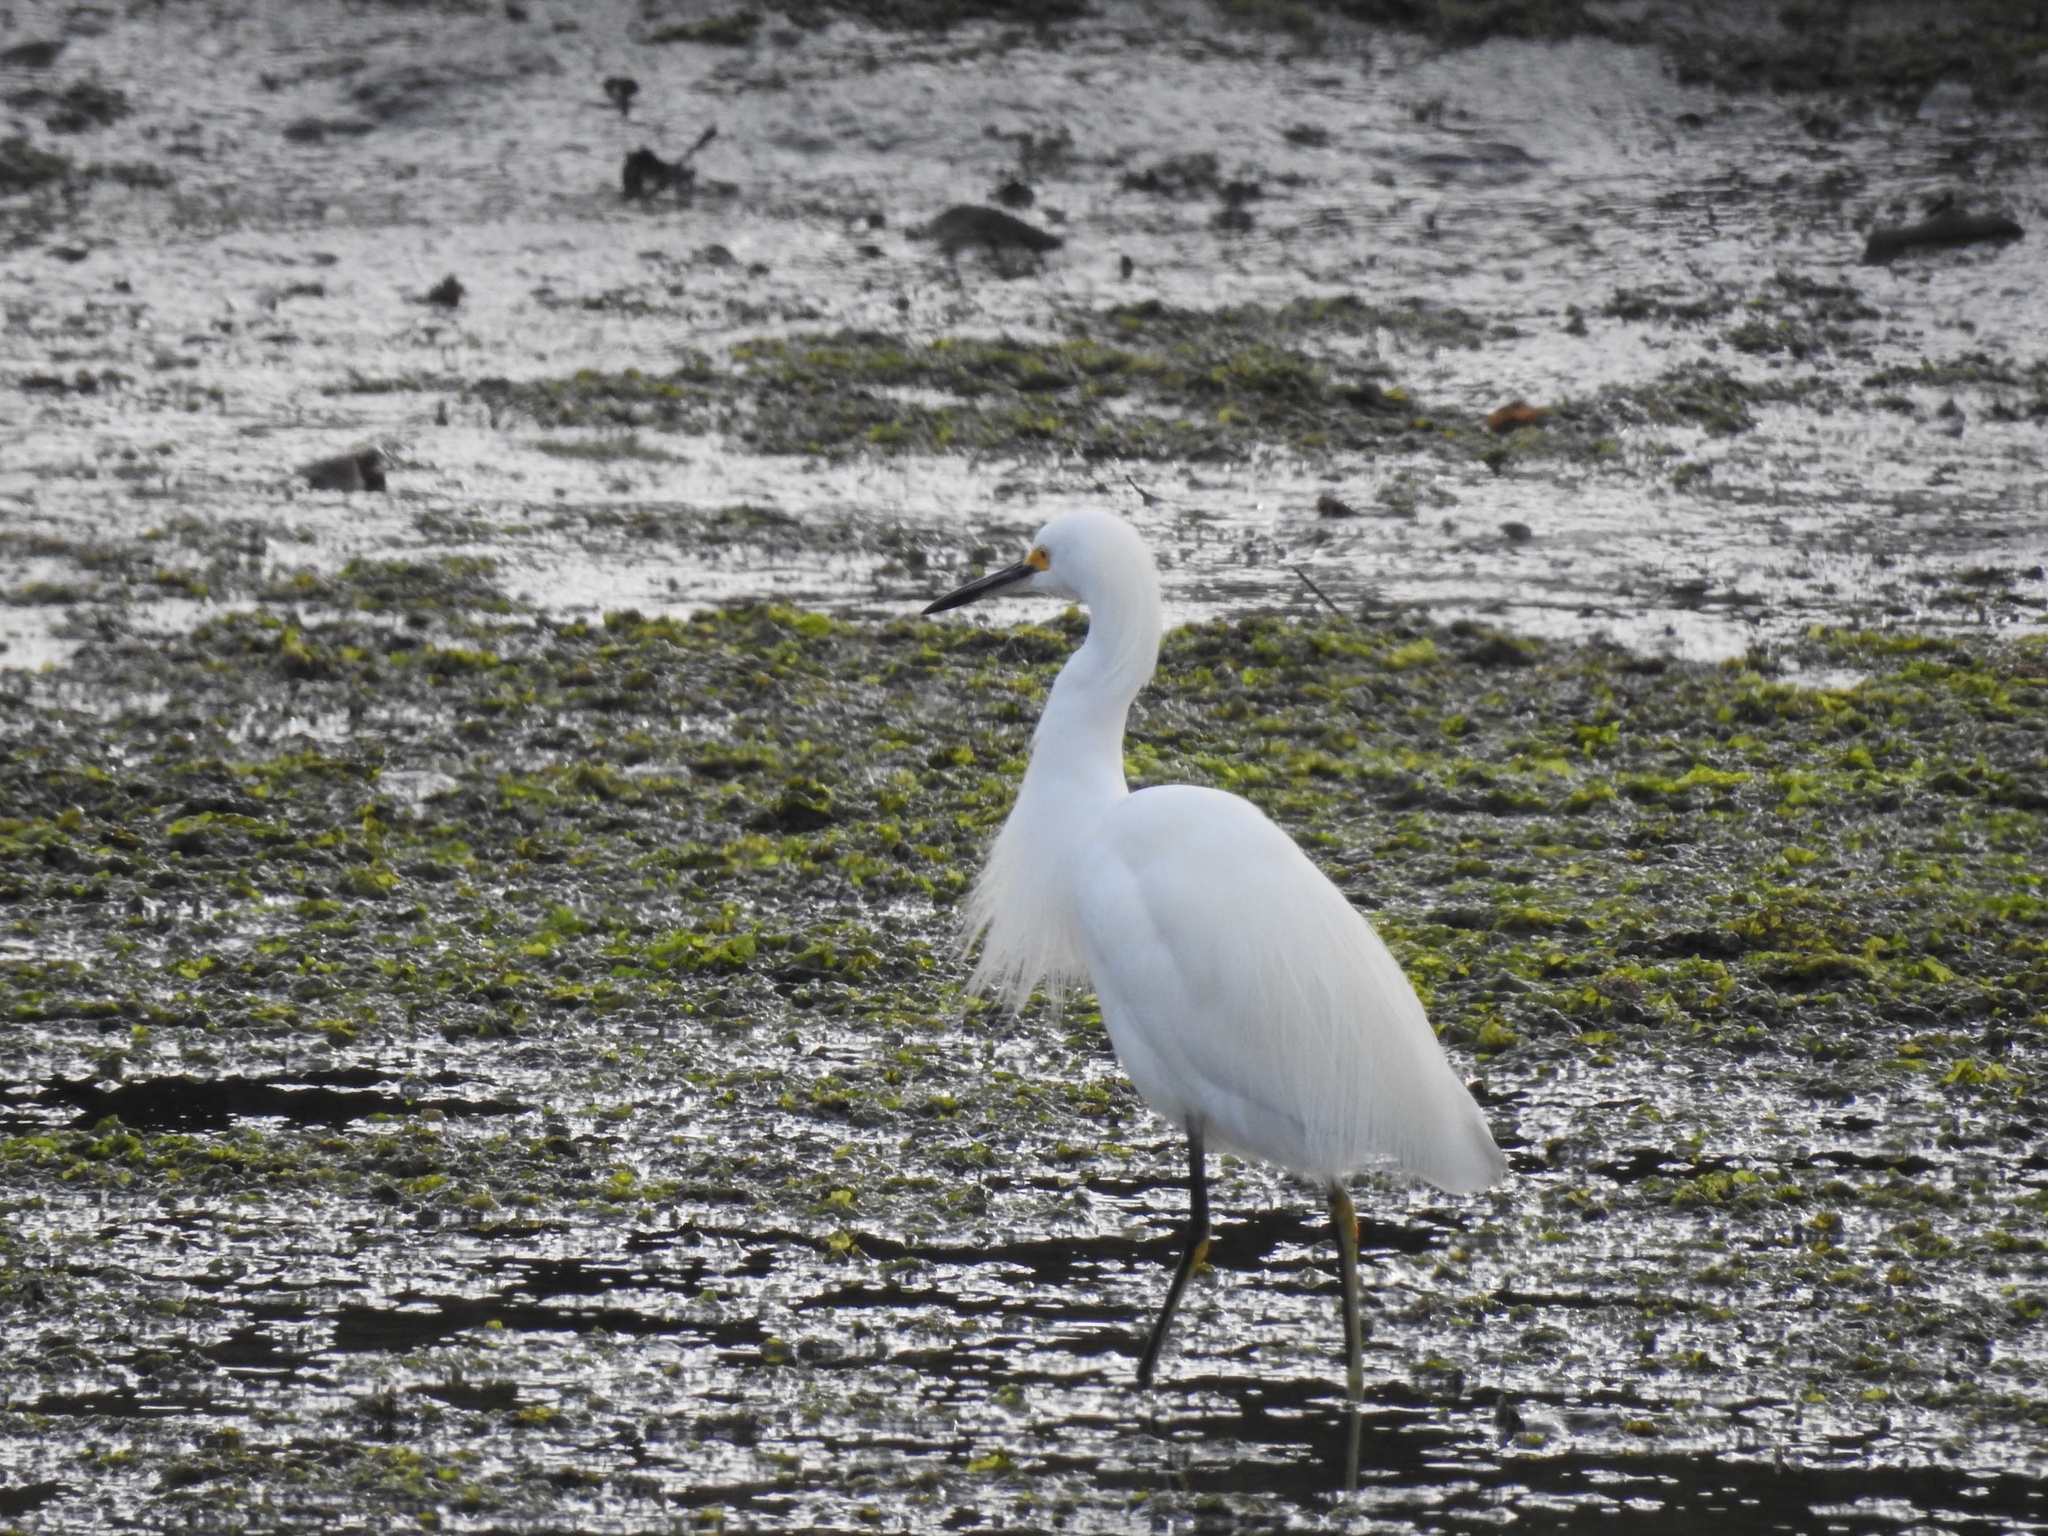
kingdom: Animalia
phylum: Chordata
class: Aves
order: Pelecaniformes
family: Ardeidae
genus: Egretta
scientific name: Egretta thula
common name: Snowy egret
